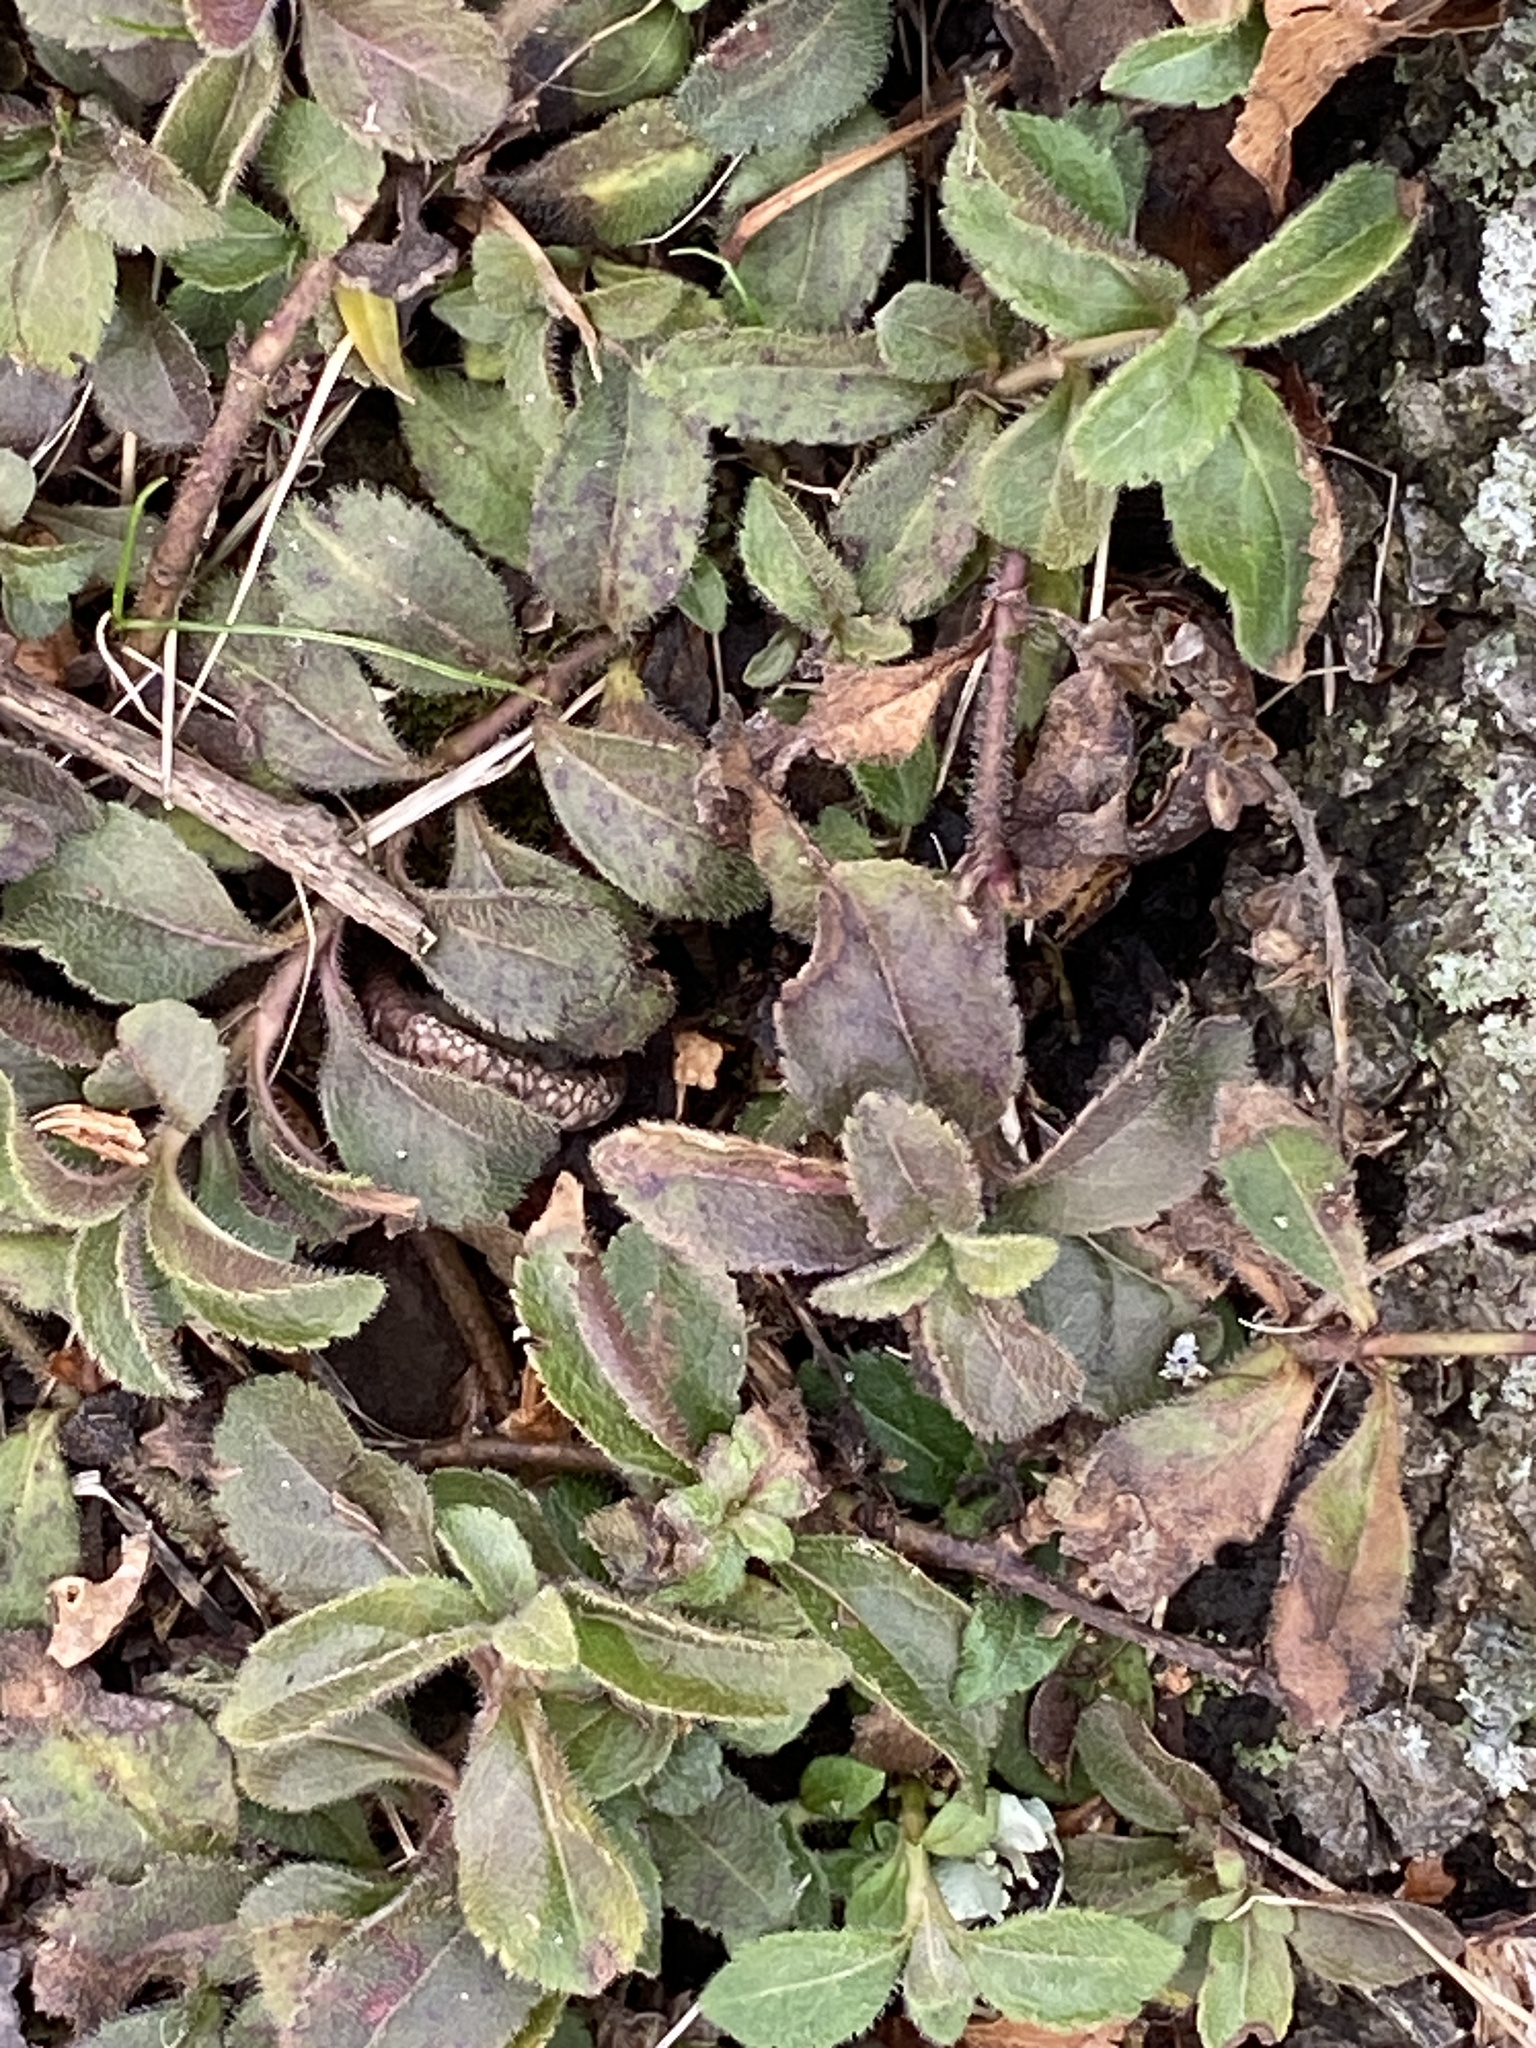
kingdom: Plantae
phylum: Tracheophyta
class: Magnoliopsida
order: Lamiales
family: Plantaginaceae
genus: Veronica
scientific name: Veronica officinalis
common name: Common speedwell
